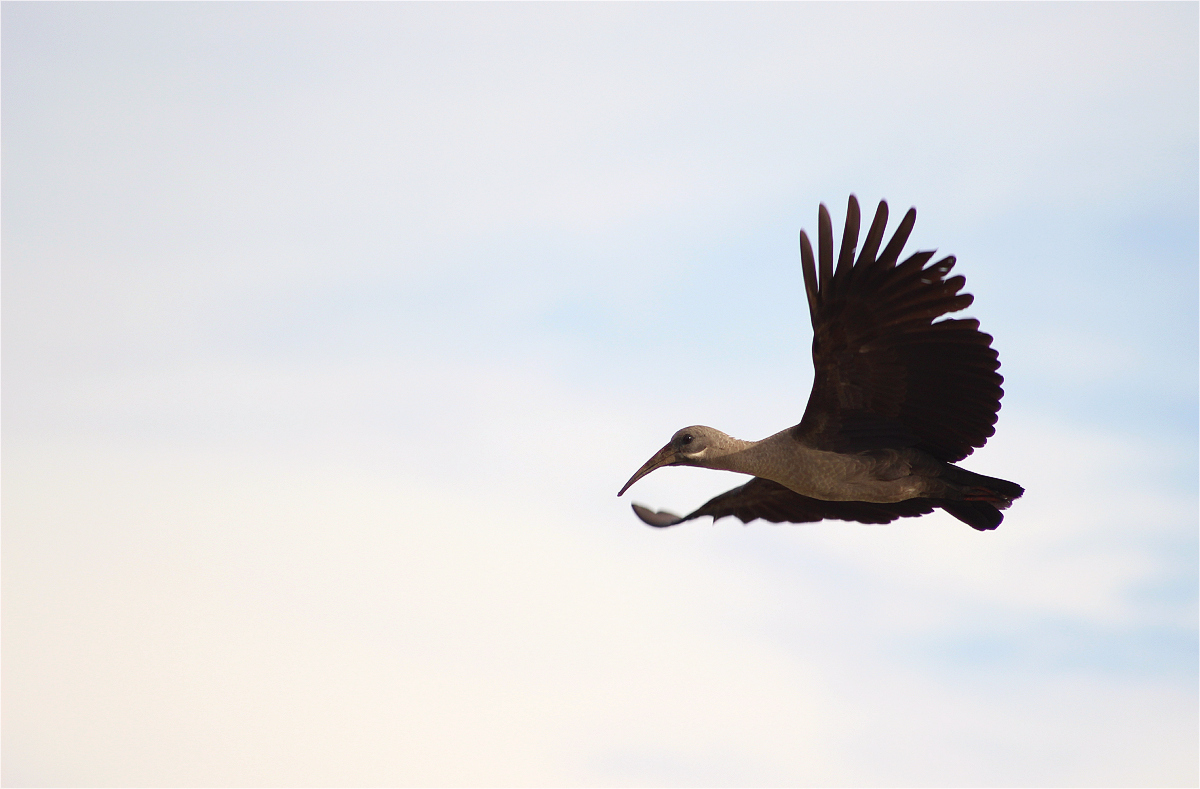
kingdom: Animalia
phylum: Chordata
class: Aves
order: Pelecaniformes
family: Threskiornithidae
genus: Bostrychia
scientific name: Bostrychia hagedash
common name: Hadada ibis
